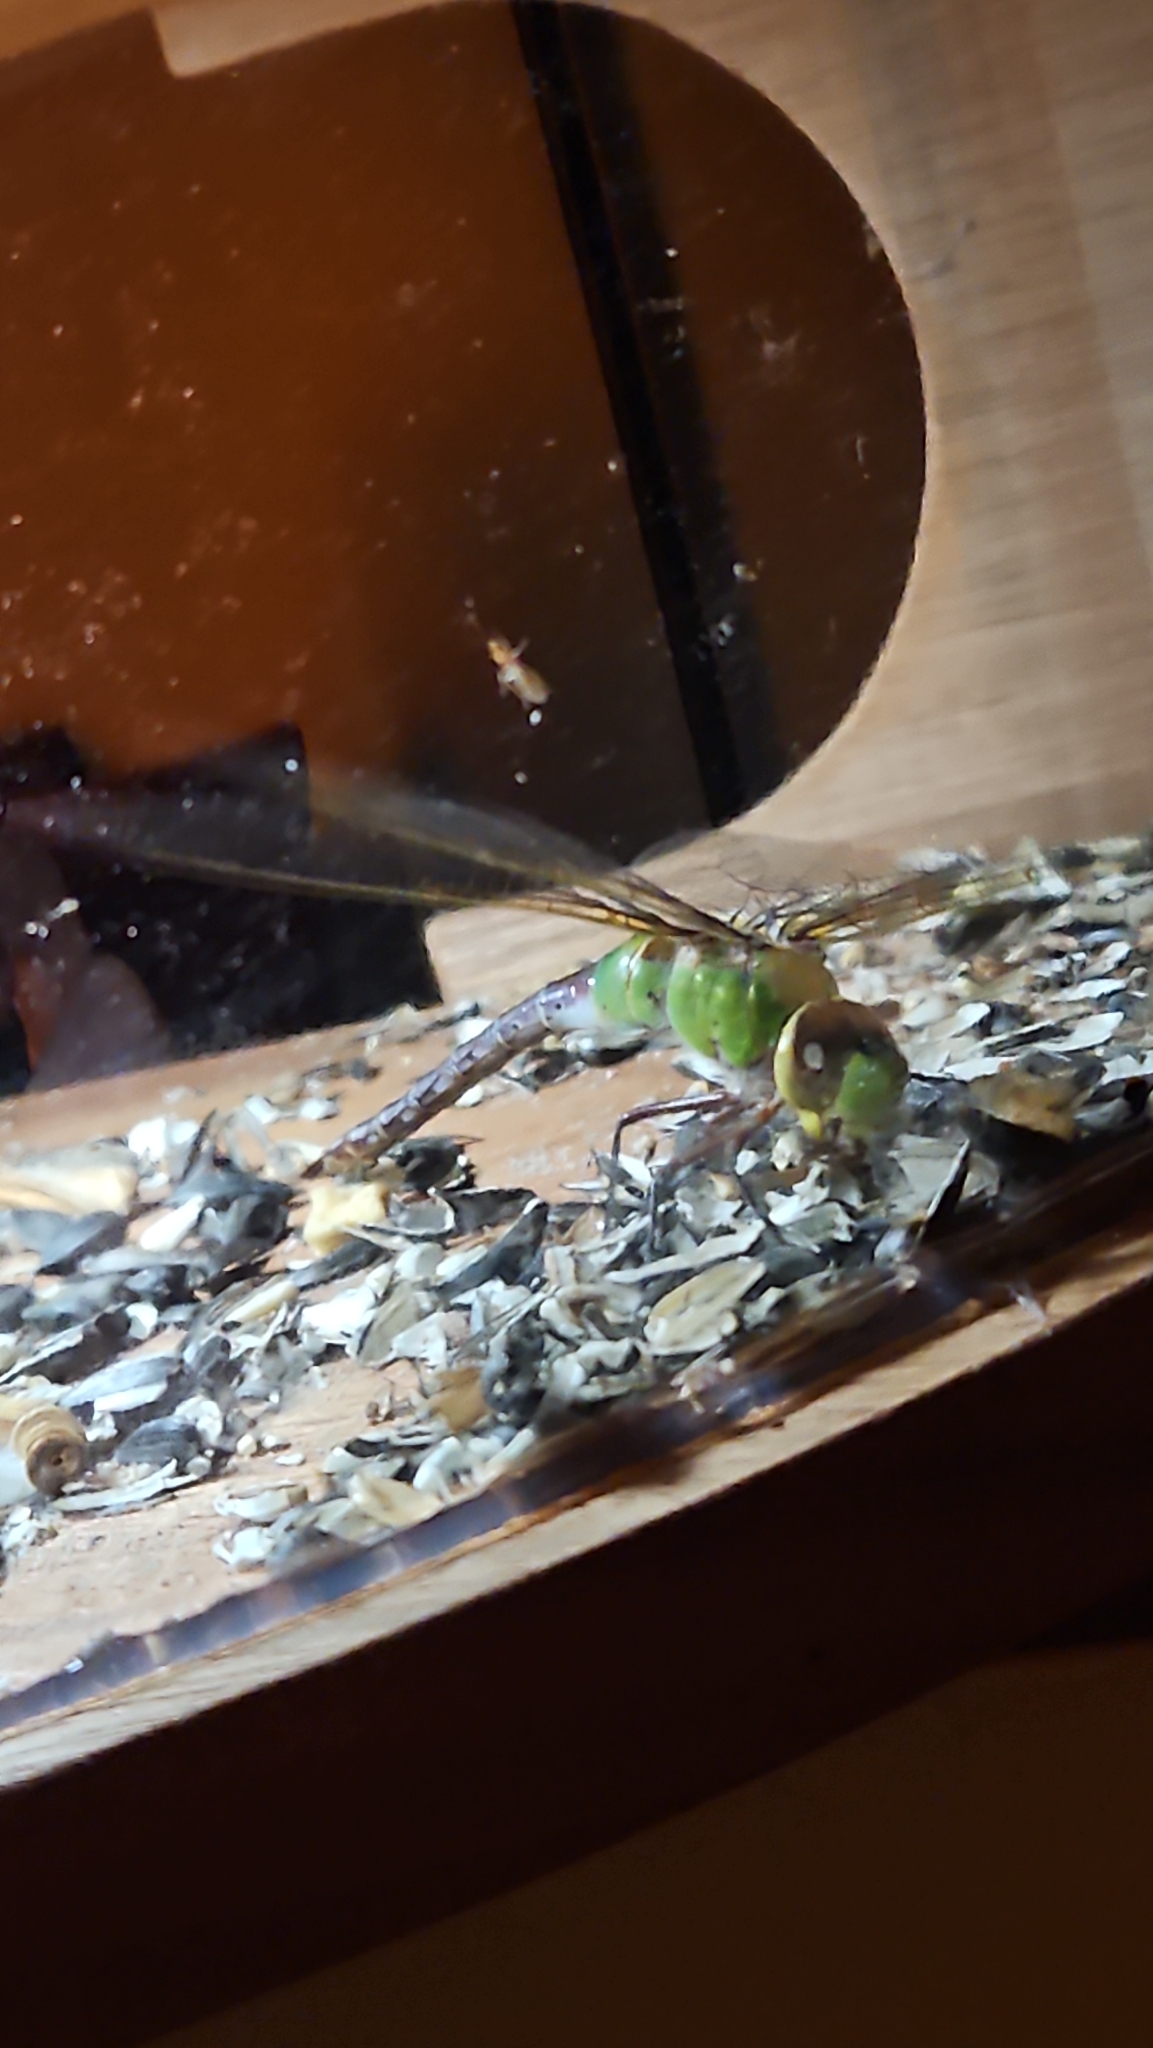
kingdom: Animalia
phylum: Arthropoda
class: Insecta
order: Odonata
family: Aeshnidae
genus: Anax
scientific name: Anax junius
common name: Common green darner
